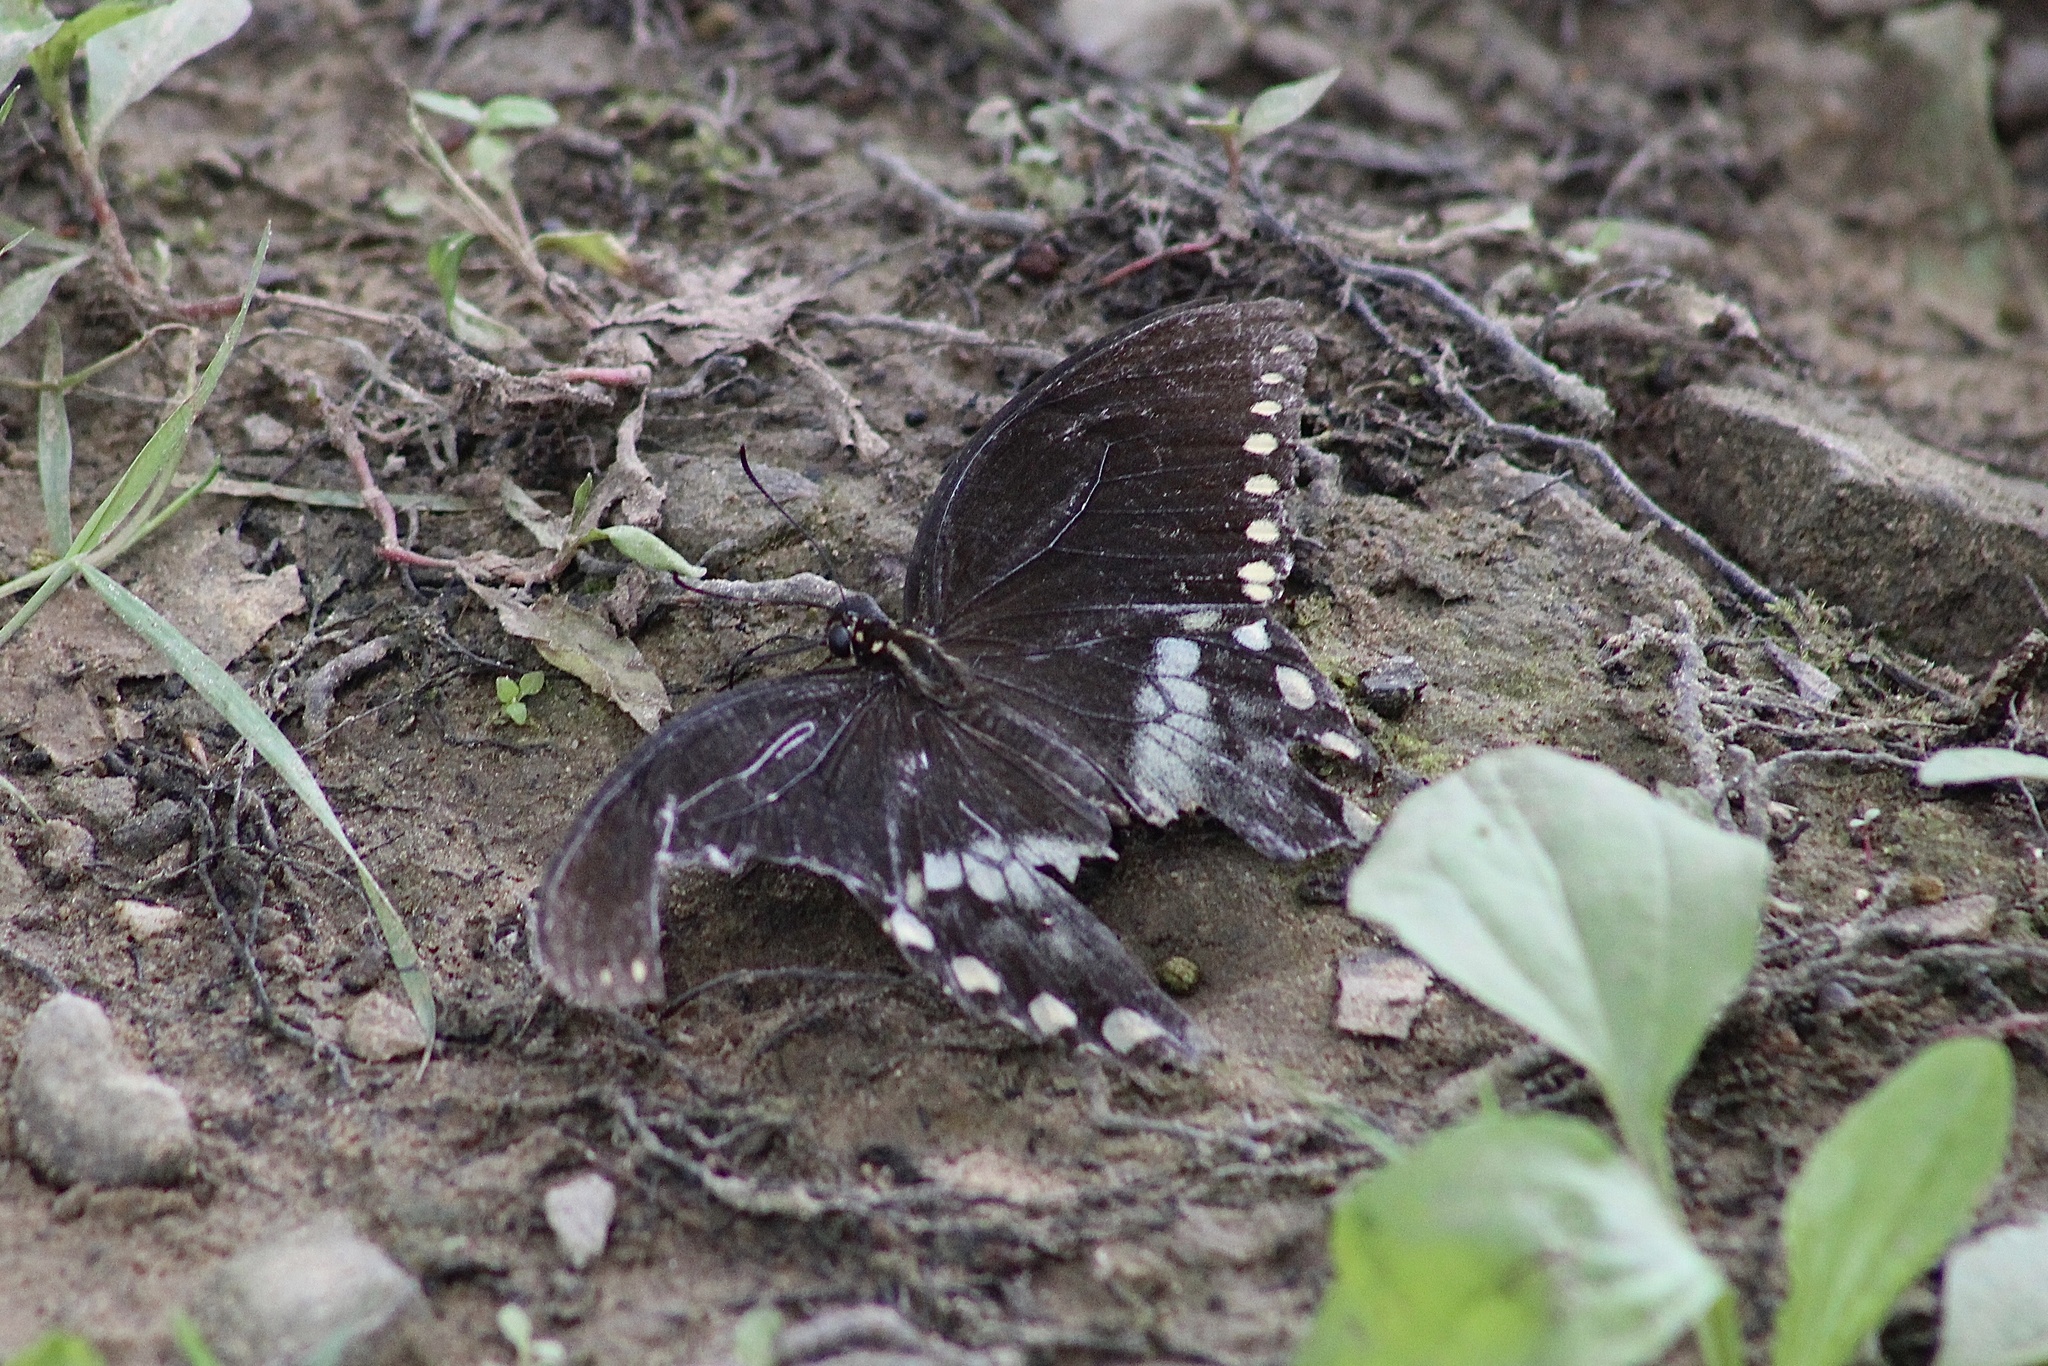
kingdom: Animalia
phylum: Arthropoda
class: Insecta
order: Lepidoptera
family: Papilionidae
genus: Papilio
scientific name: Papilio troilus
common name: Spicebush swallowtail
